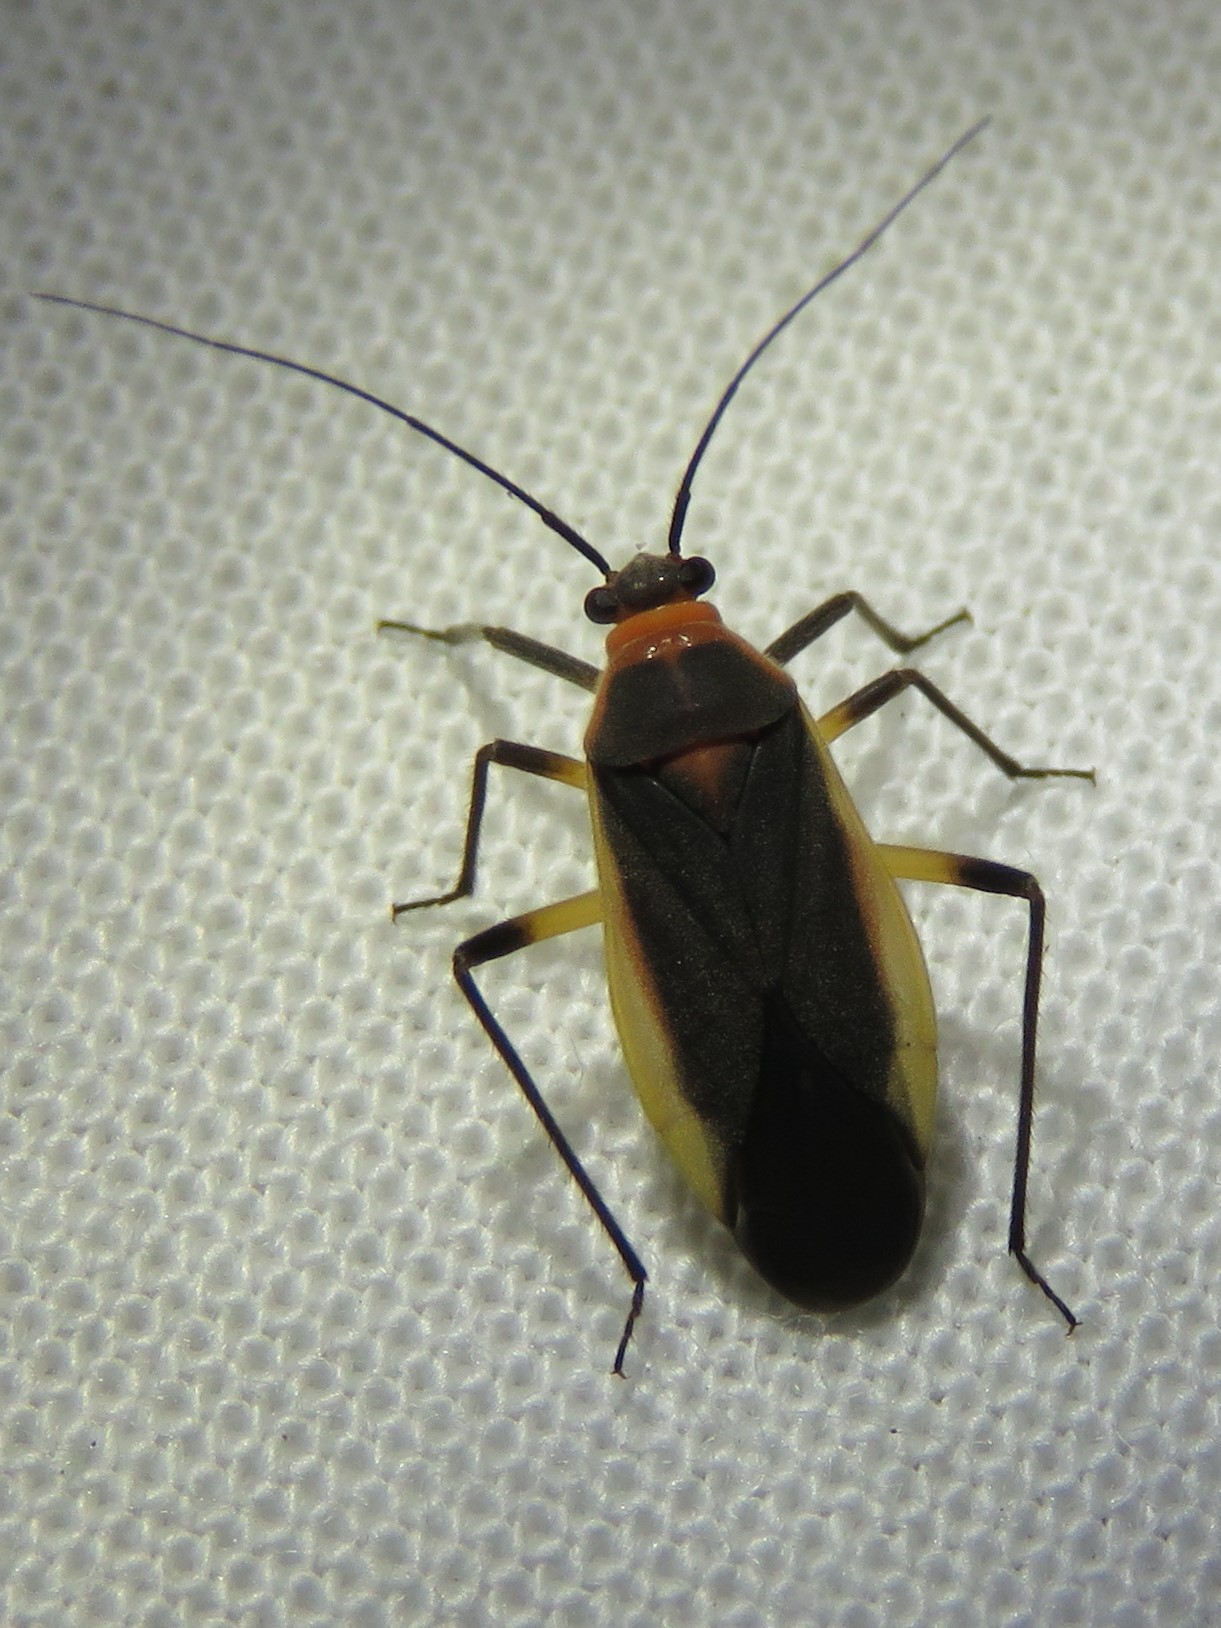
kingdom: Animalia
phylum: Arthropoda
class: Insecta
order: Hemiptera
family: Miridae
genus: Opistheurista
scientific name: Opistheurista clandestina
